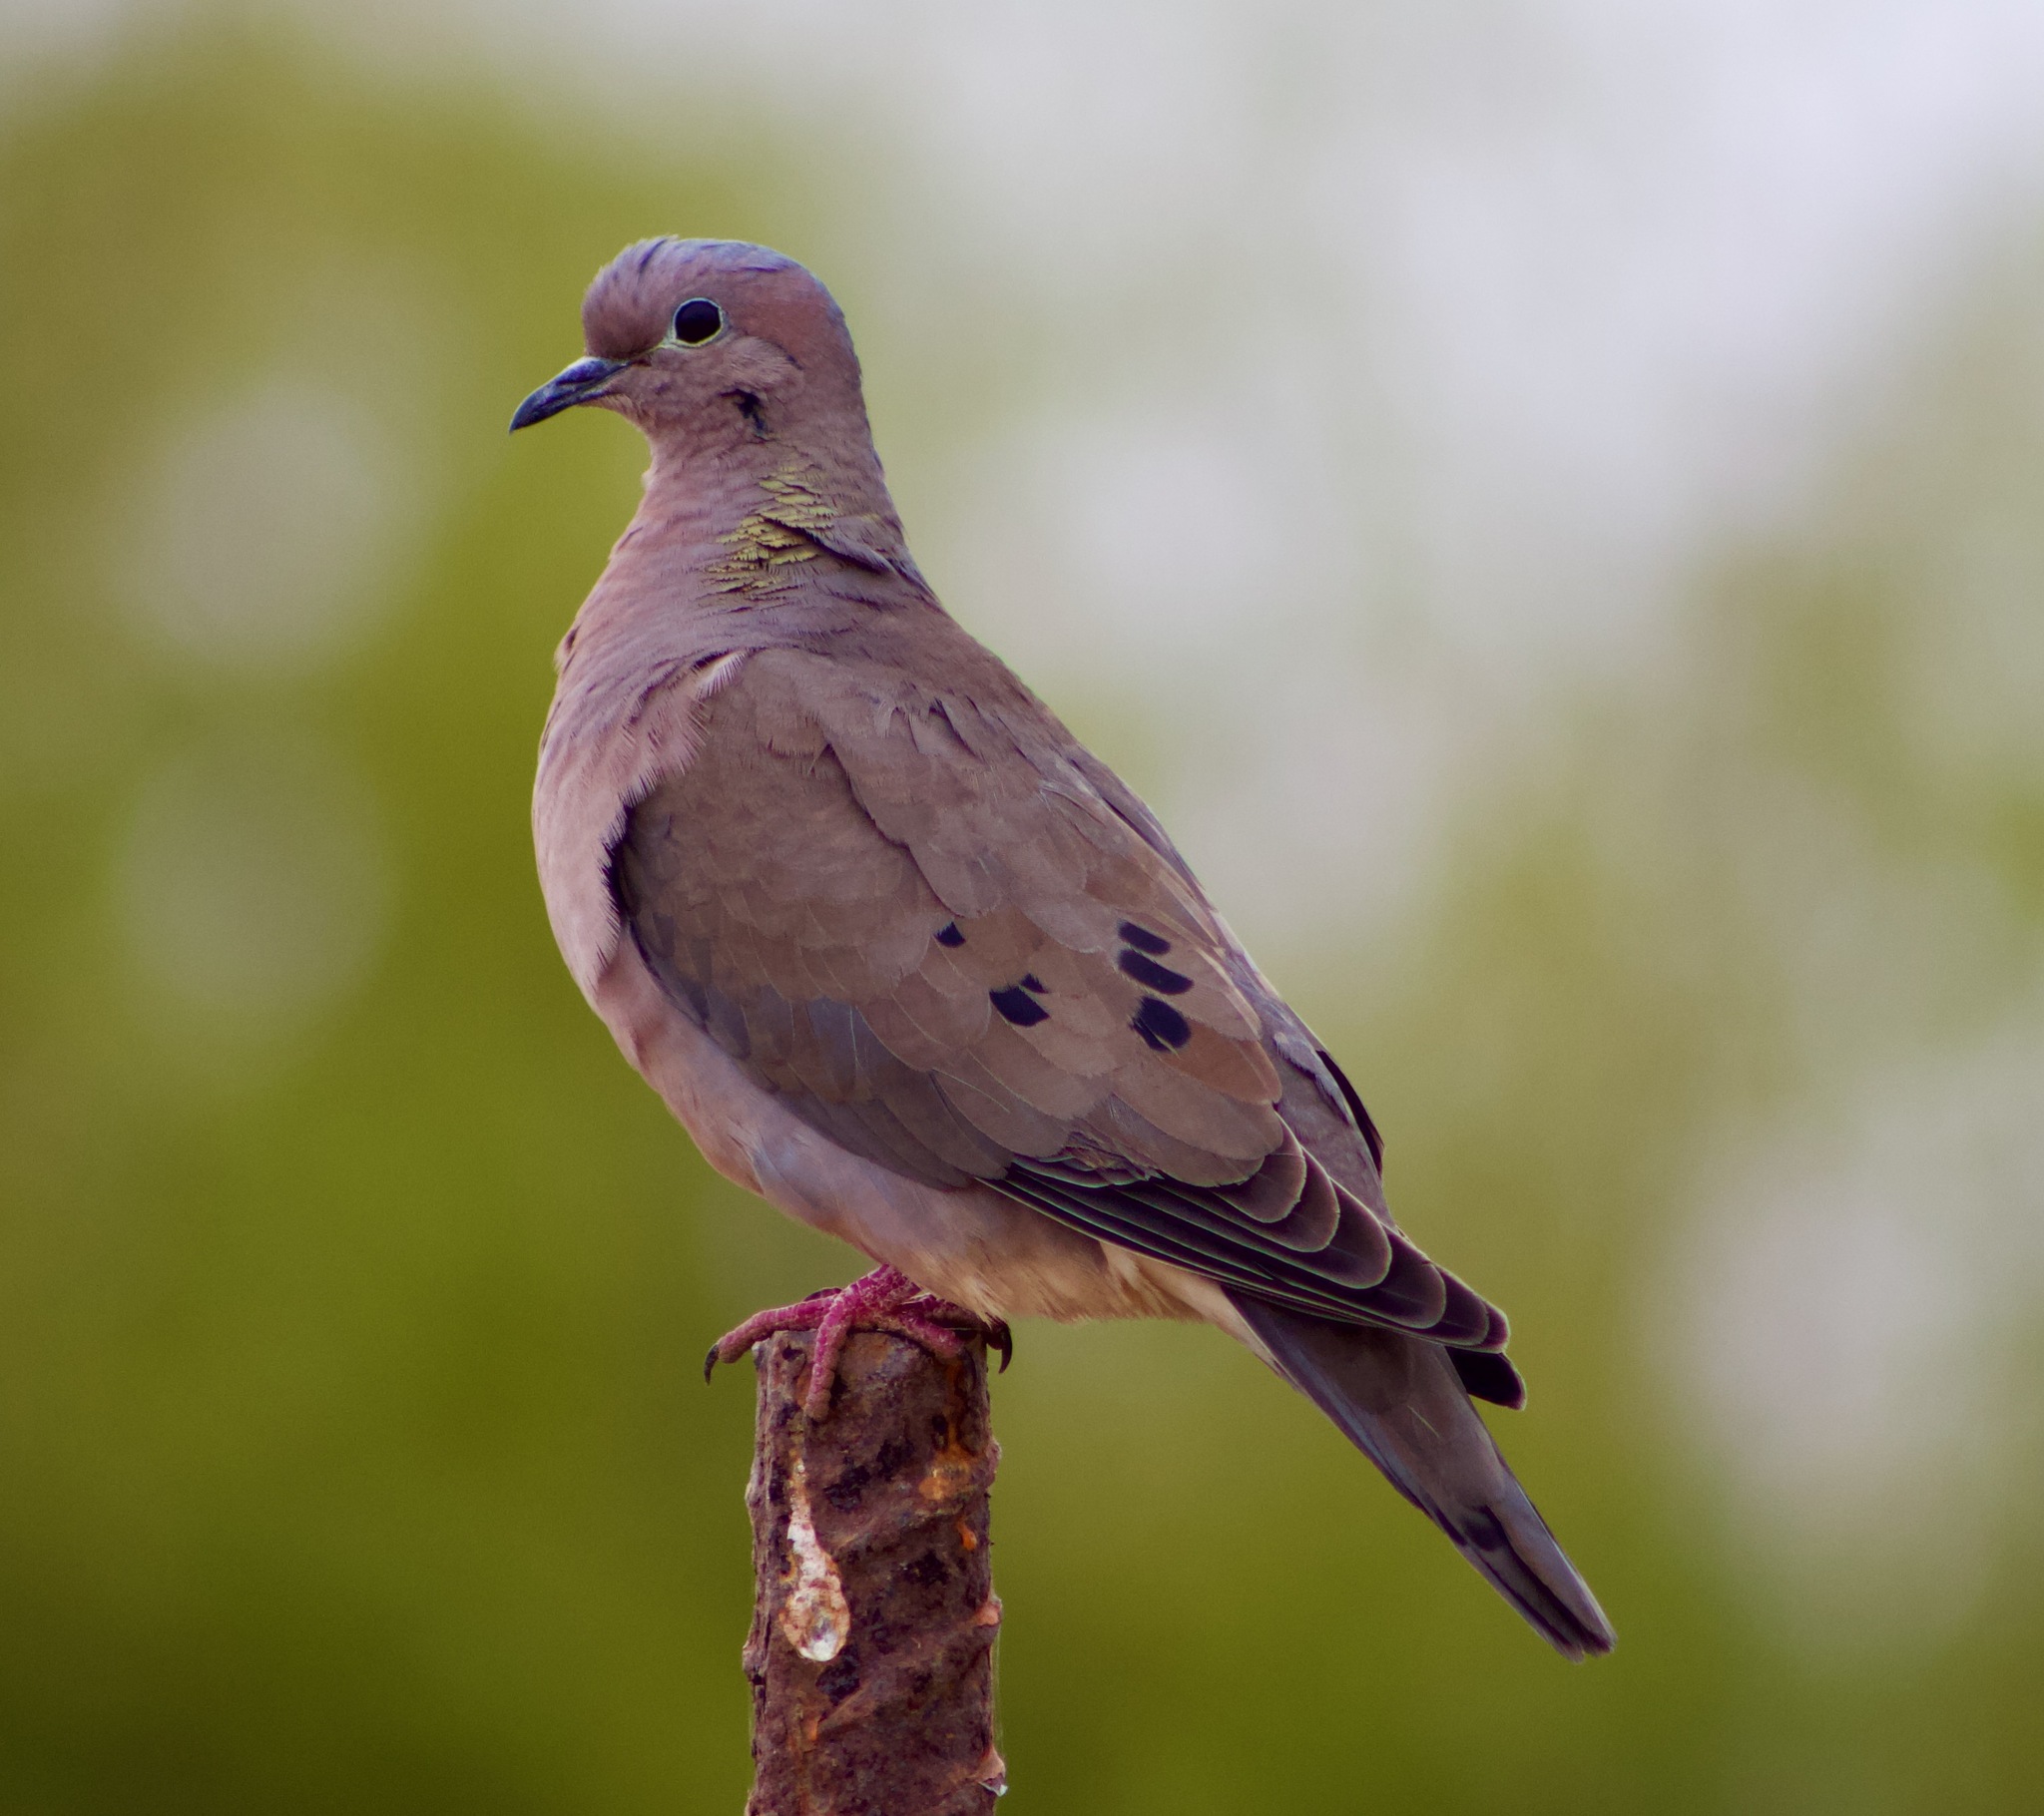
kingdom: Animalia
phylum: Chordata
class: Aves
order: Columbiformes
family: Columbidae
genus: Zenaida
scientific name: Zenaida auriculata
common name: Eared dove
